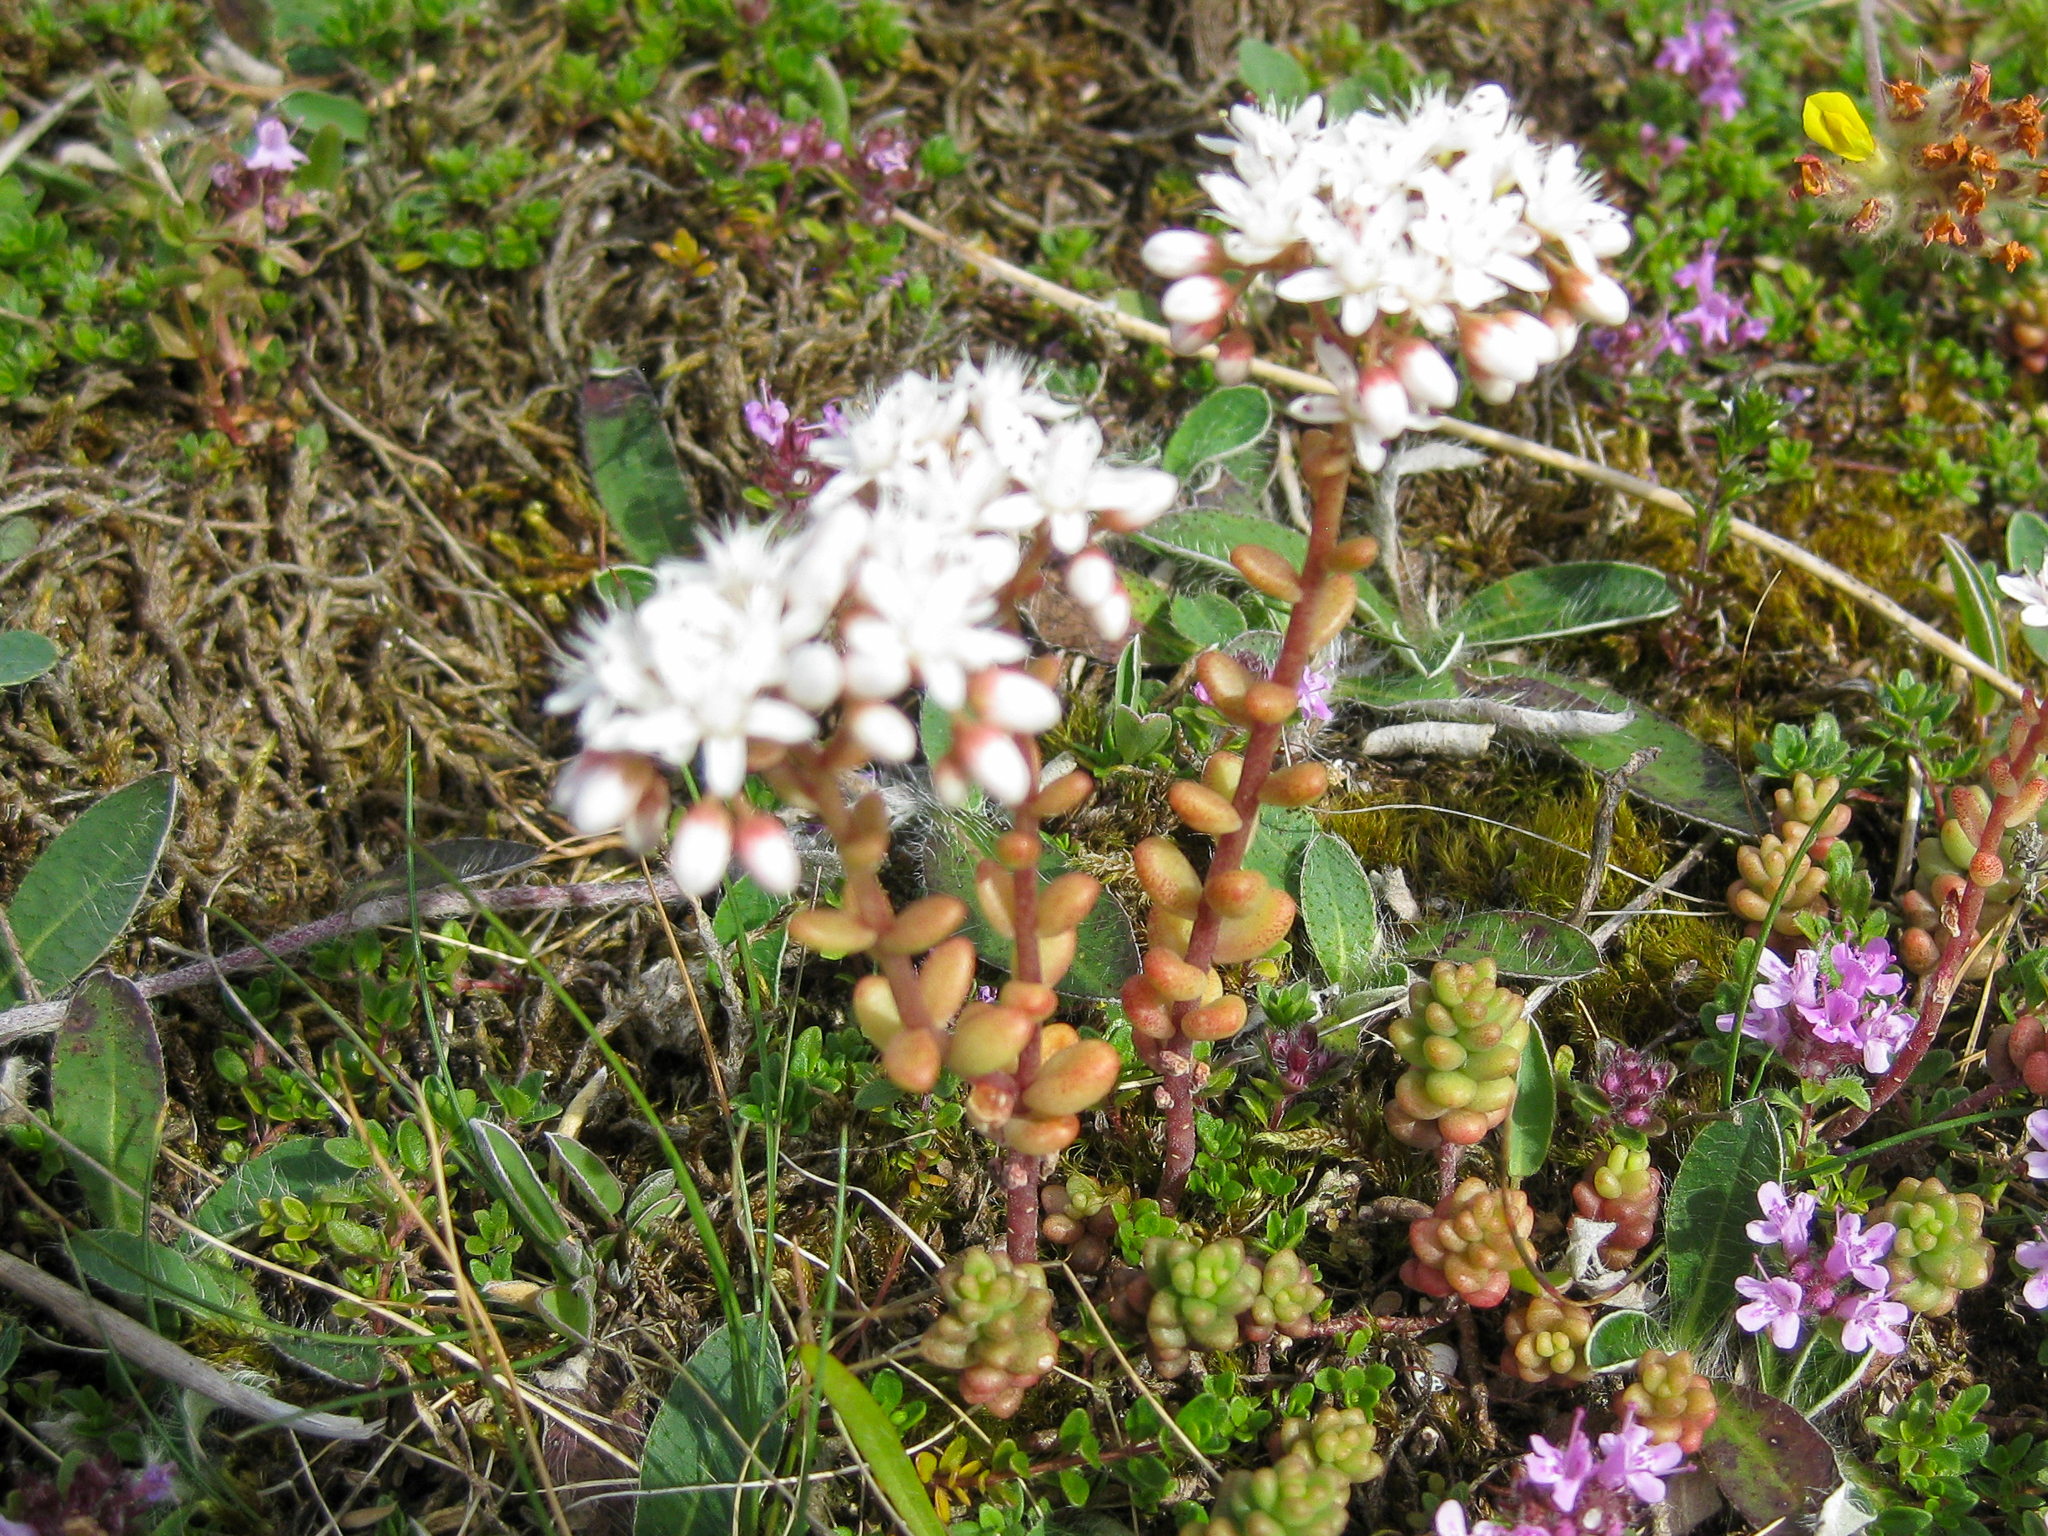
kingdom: Plantae
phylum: Tracheophyta
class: Magnoliopsida
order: Saxifragales
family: Crassulaceae
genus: Sedum
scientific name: Sedum album
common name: White stonecrop
